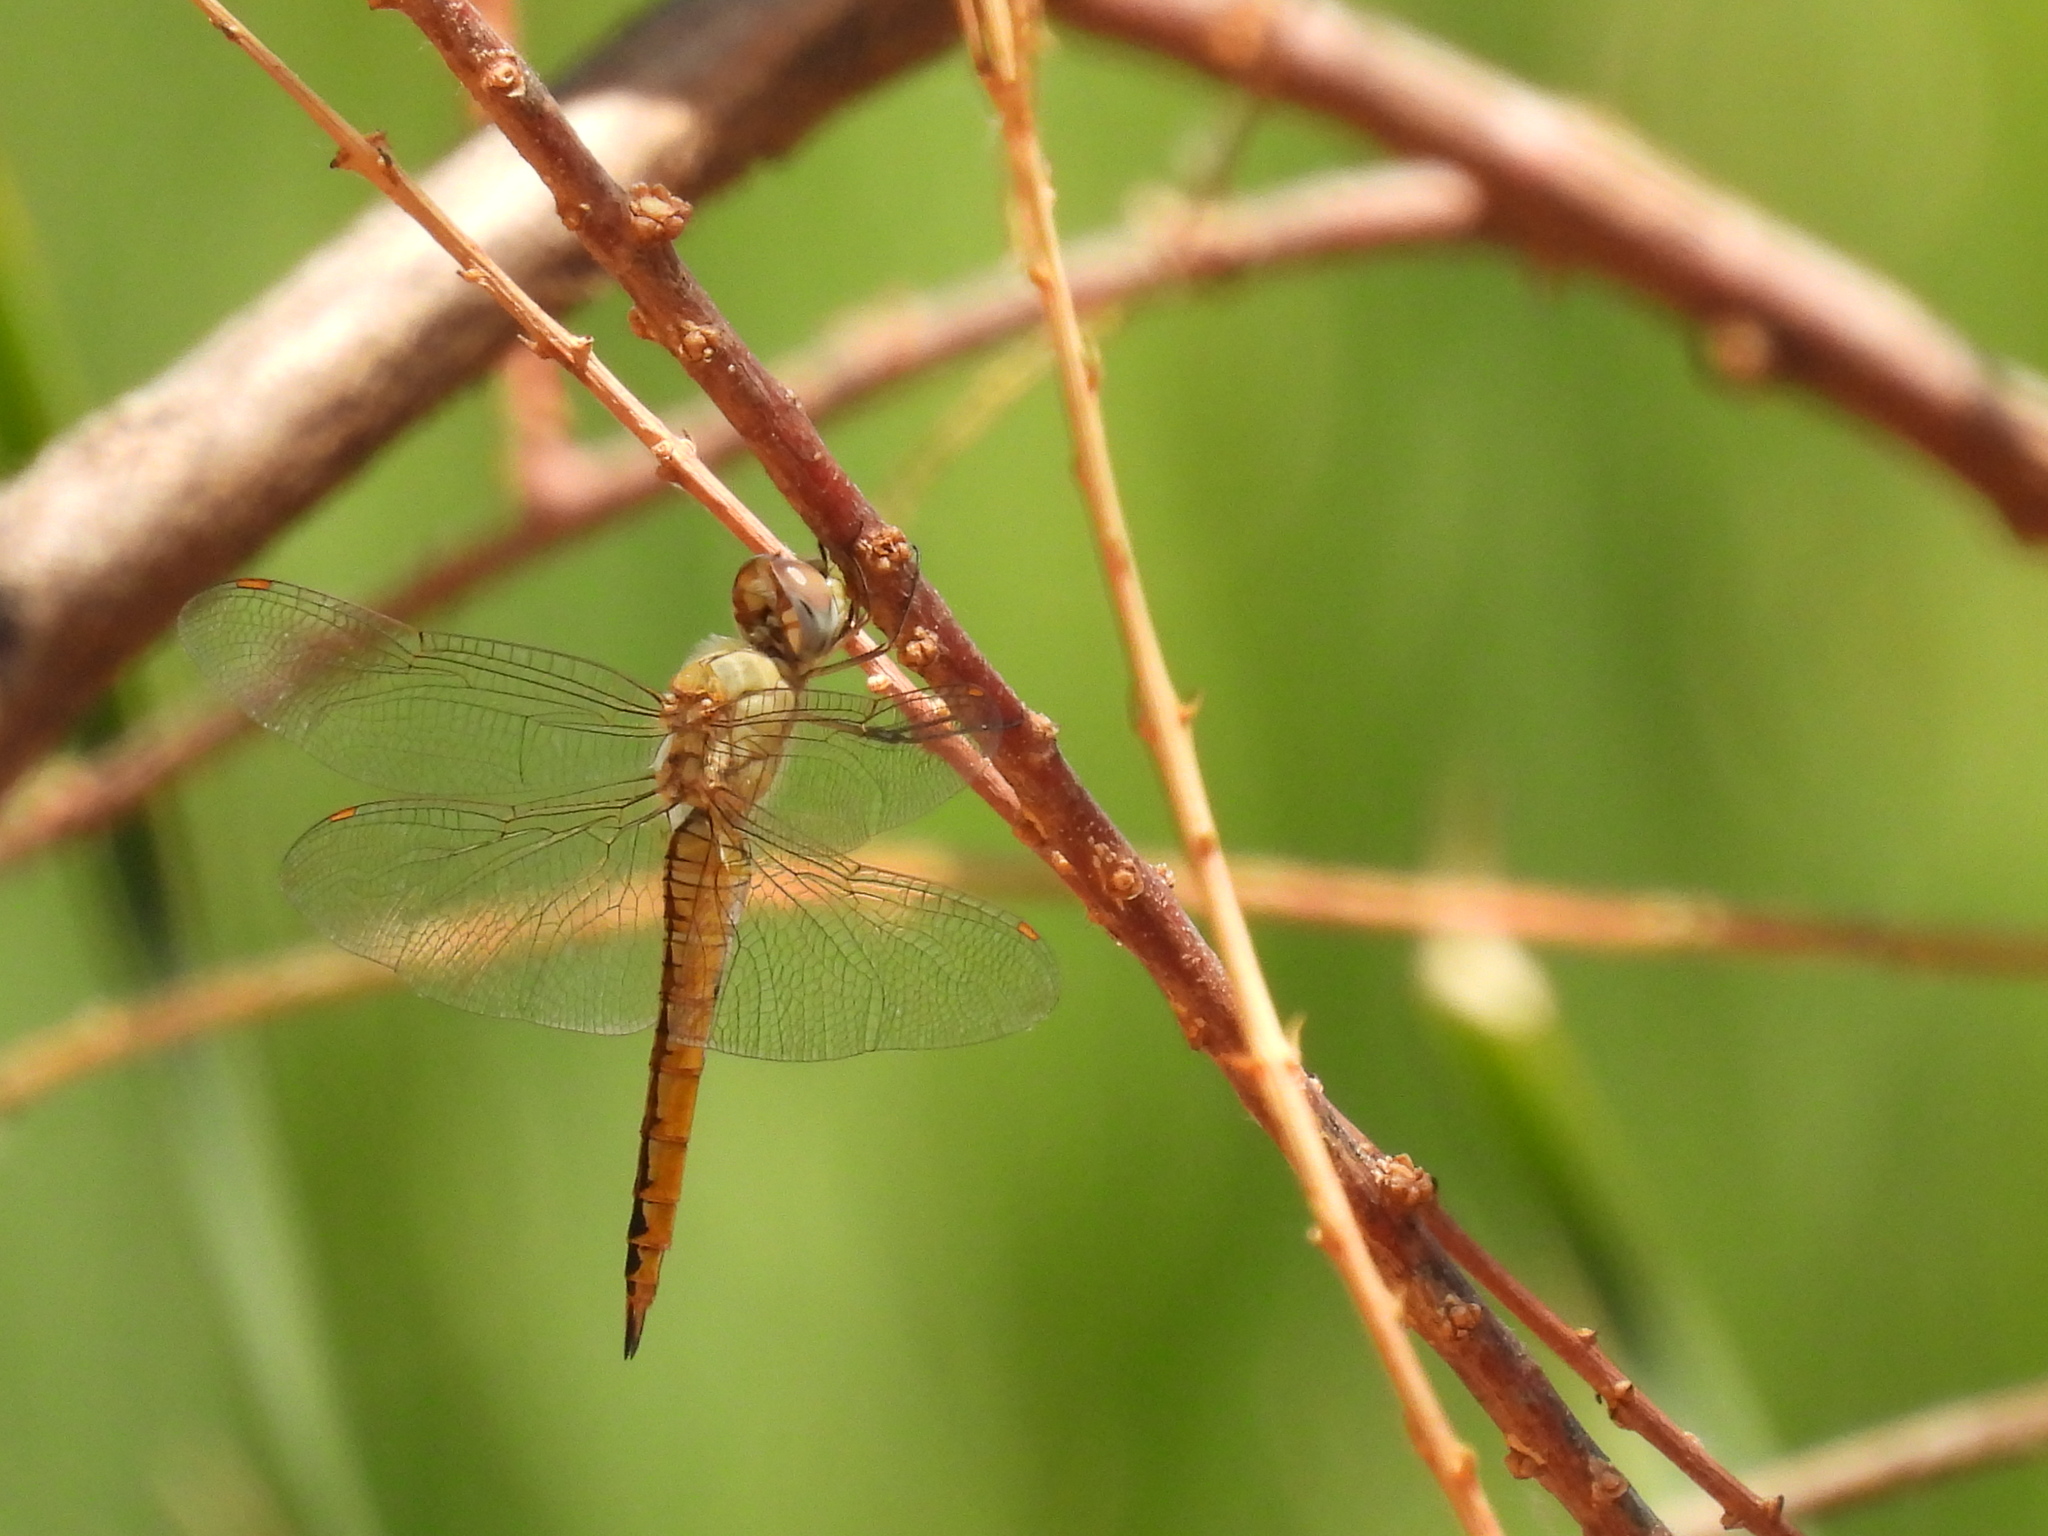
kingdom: Animalia
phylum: Arthropoda
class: Insecta
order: Odonata
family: Libellulidae
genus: Pantala
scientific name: Pantala flavescens
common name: Wandering glider
